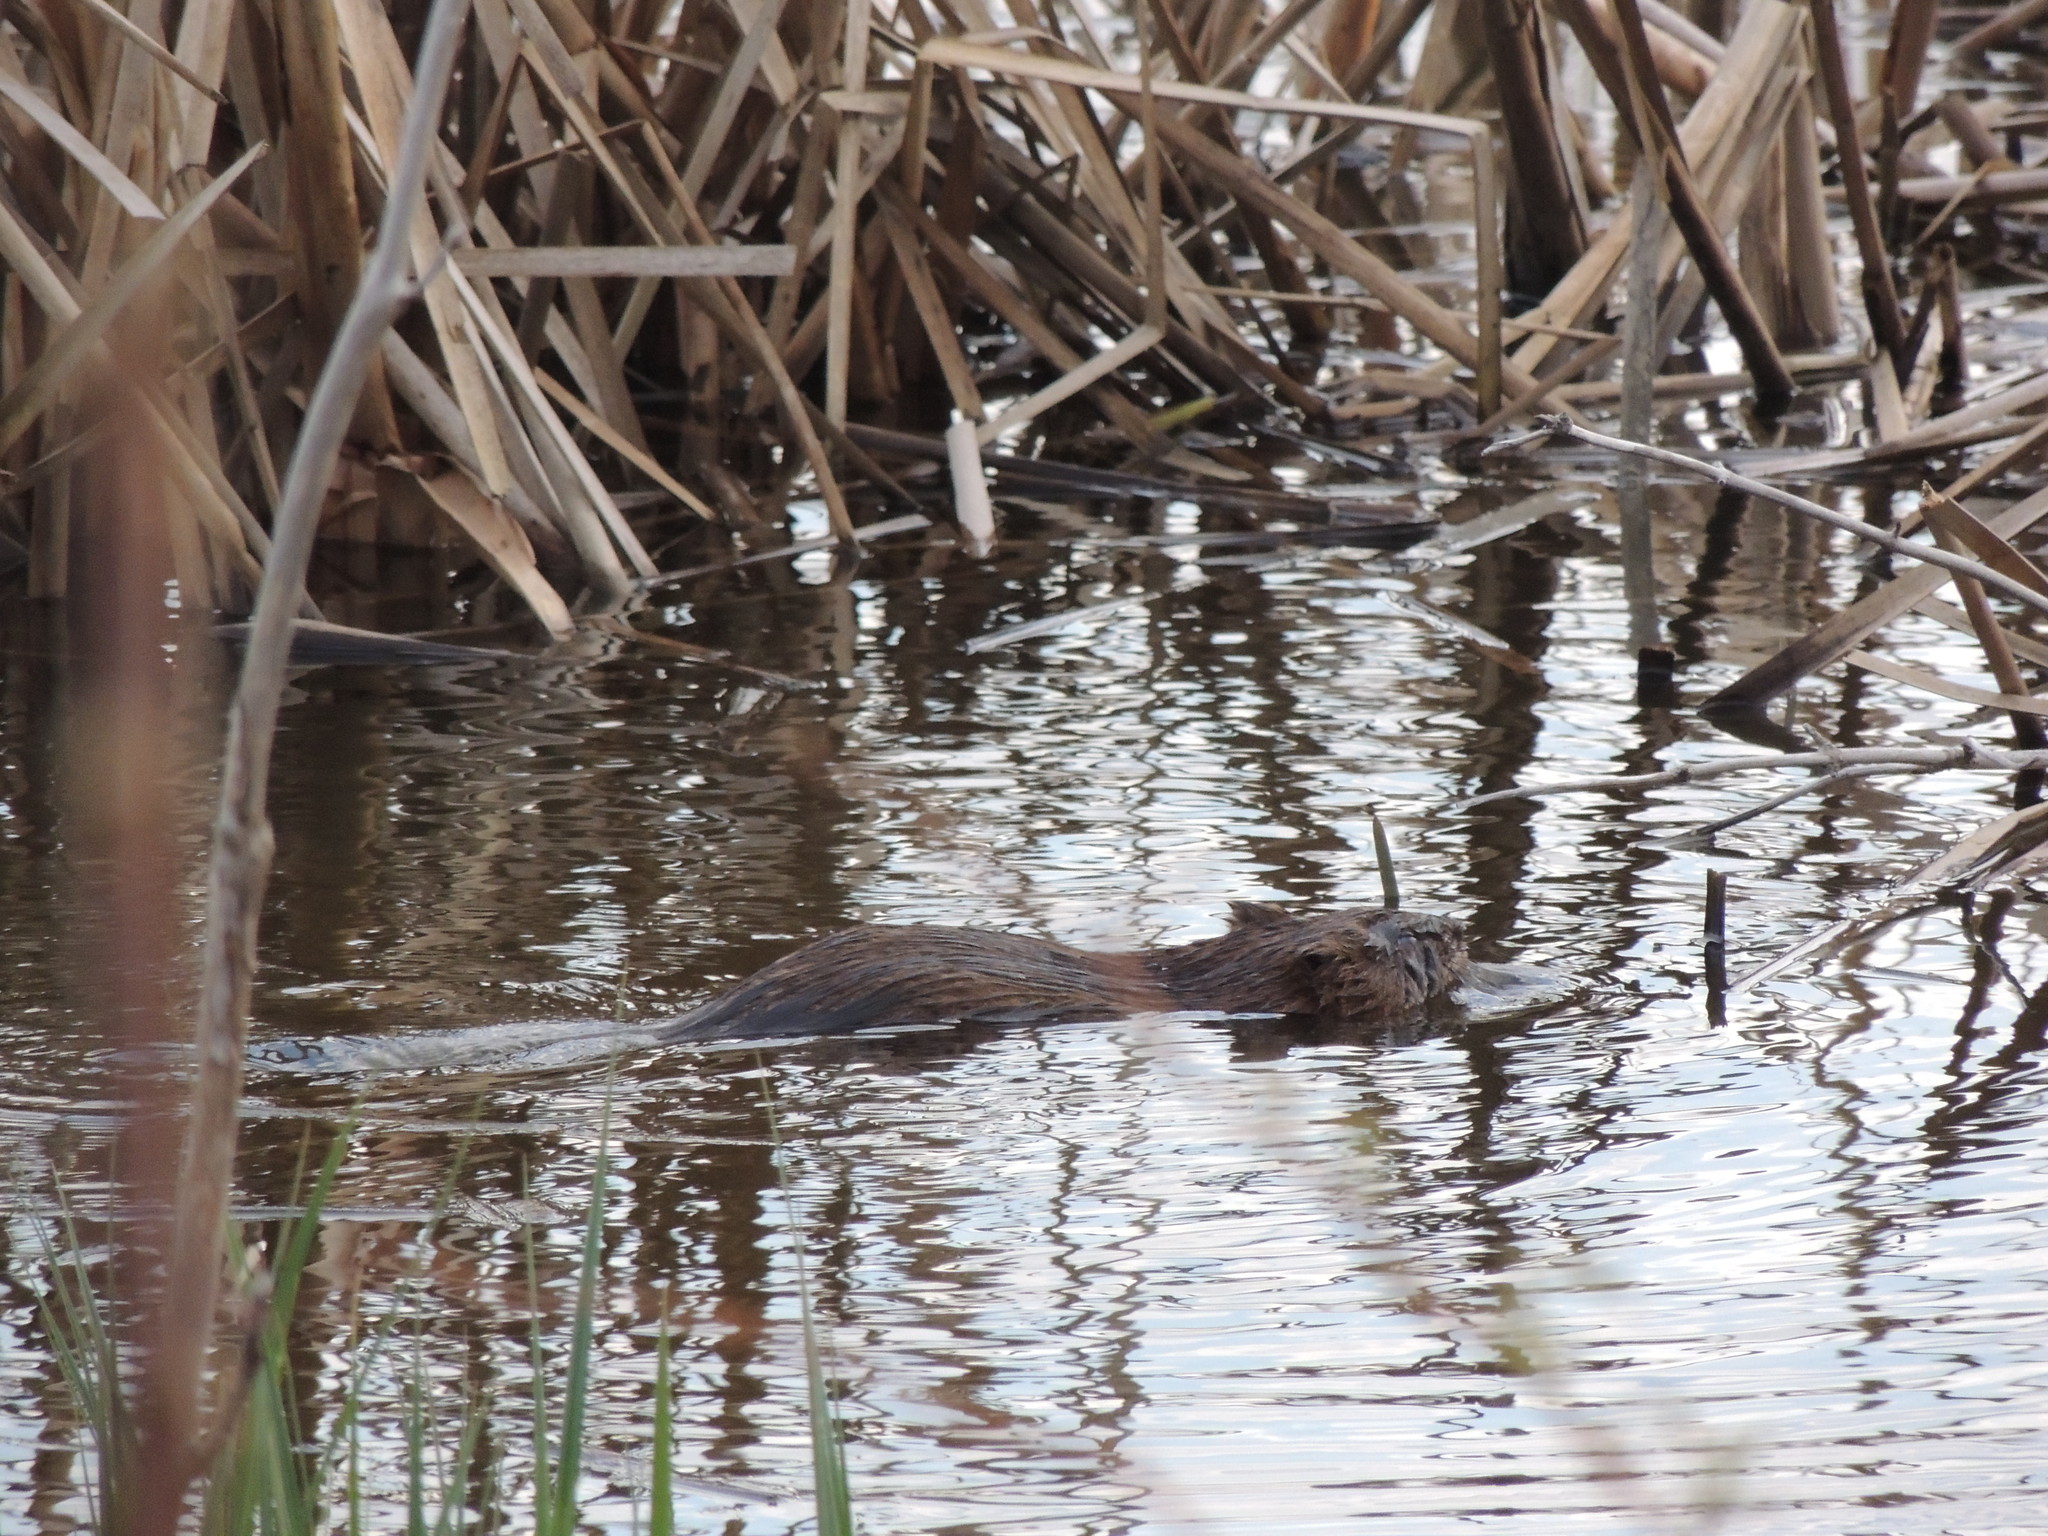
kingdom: Animalia
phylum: Chordata
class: Mammalia
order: Rodentia
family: Cricetidae
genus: Ondatra
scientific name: Ondatra zibethicus
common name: Muskrat
